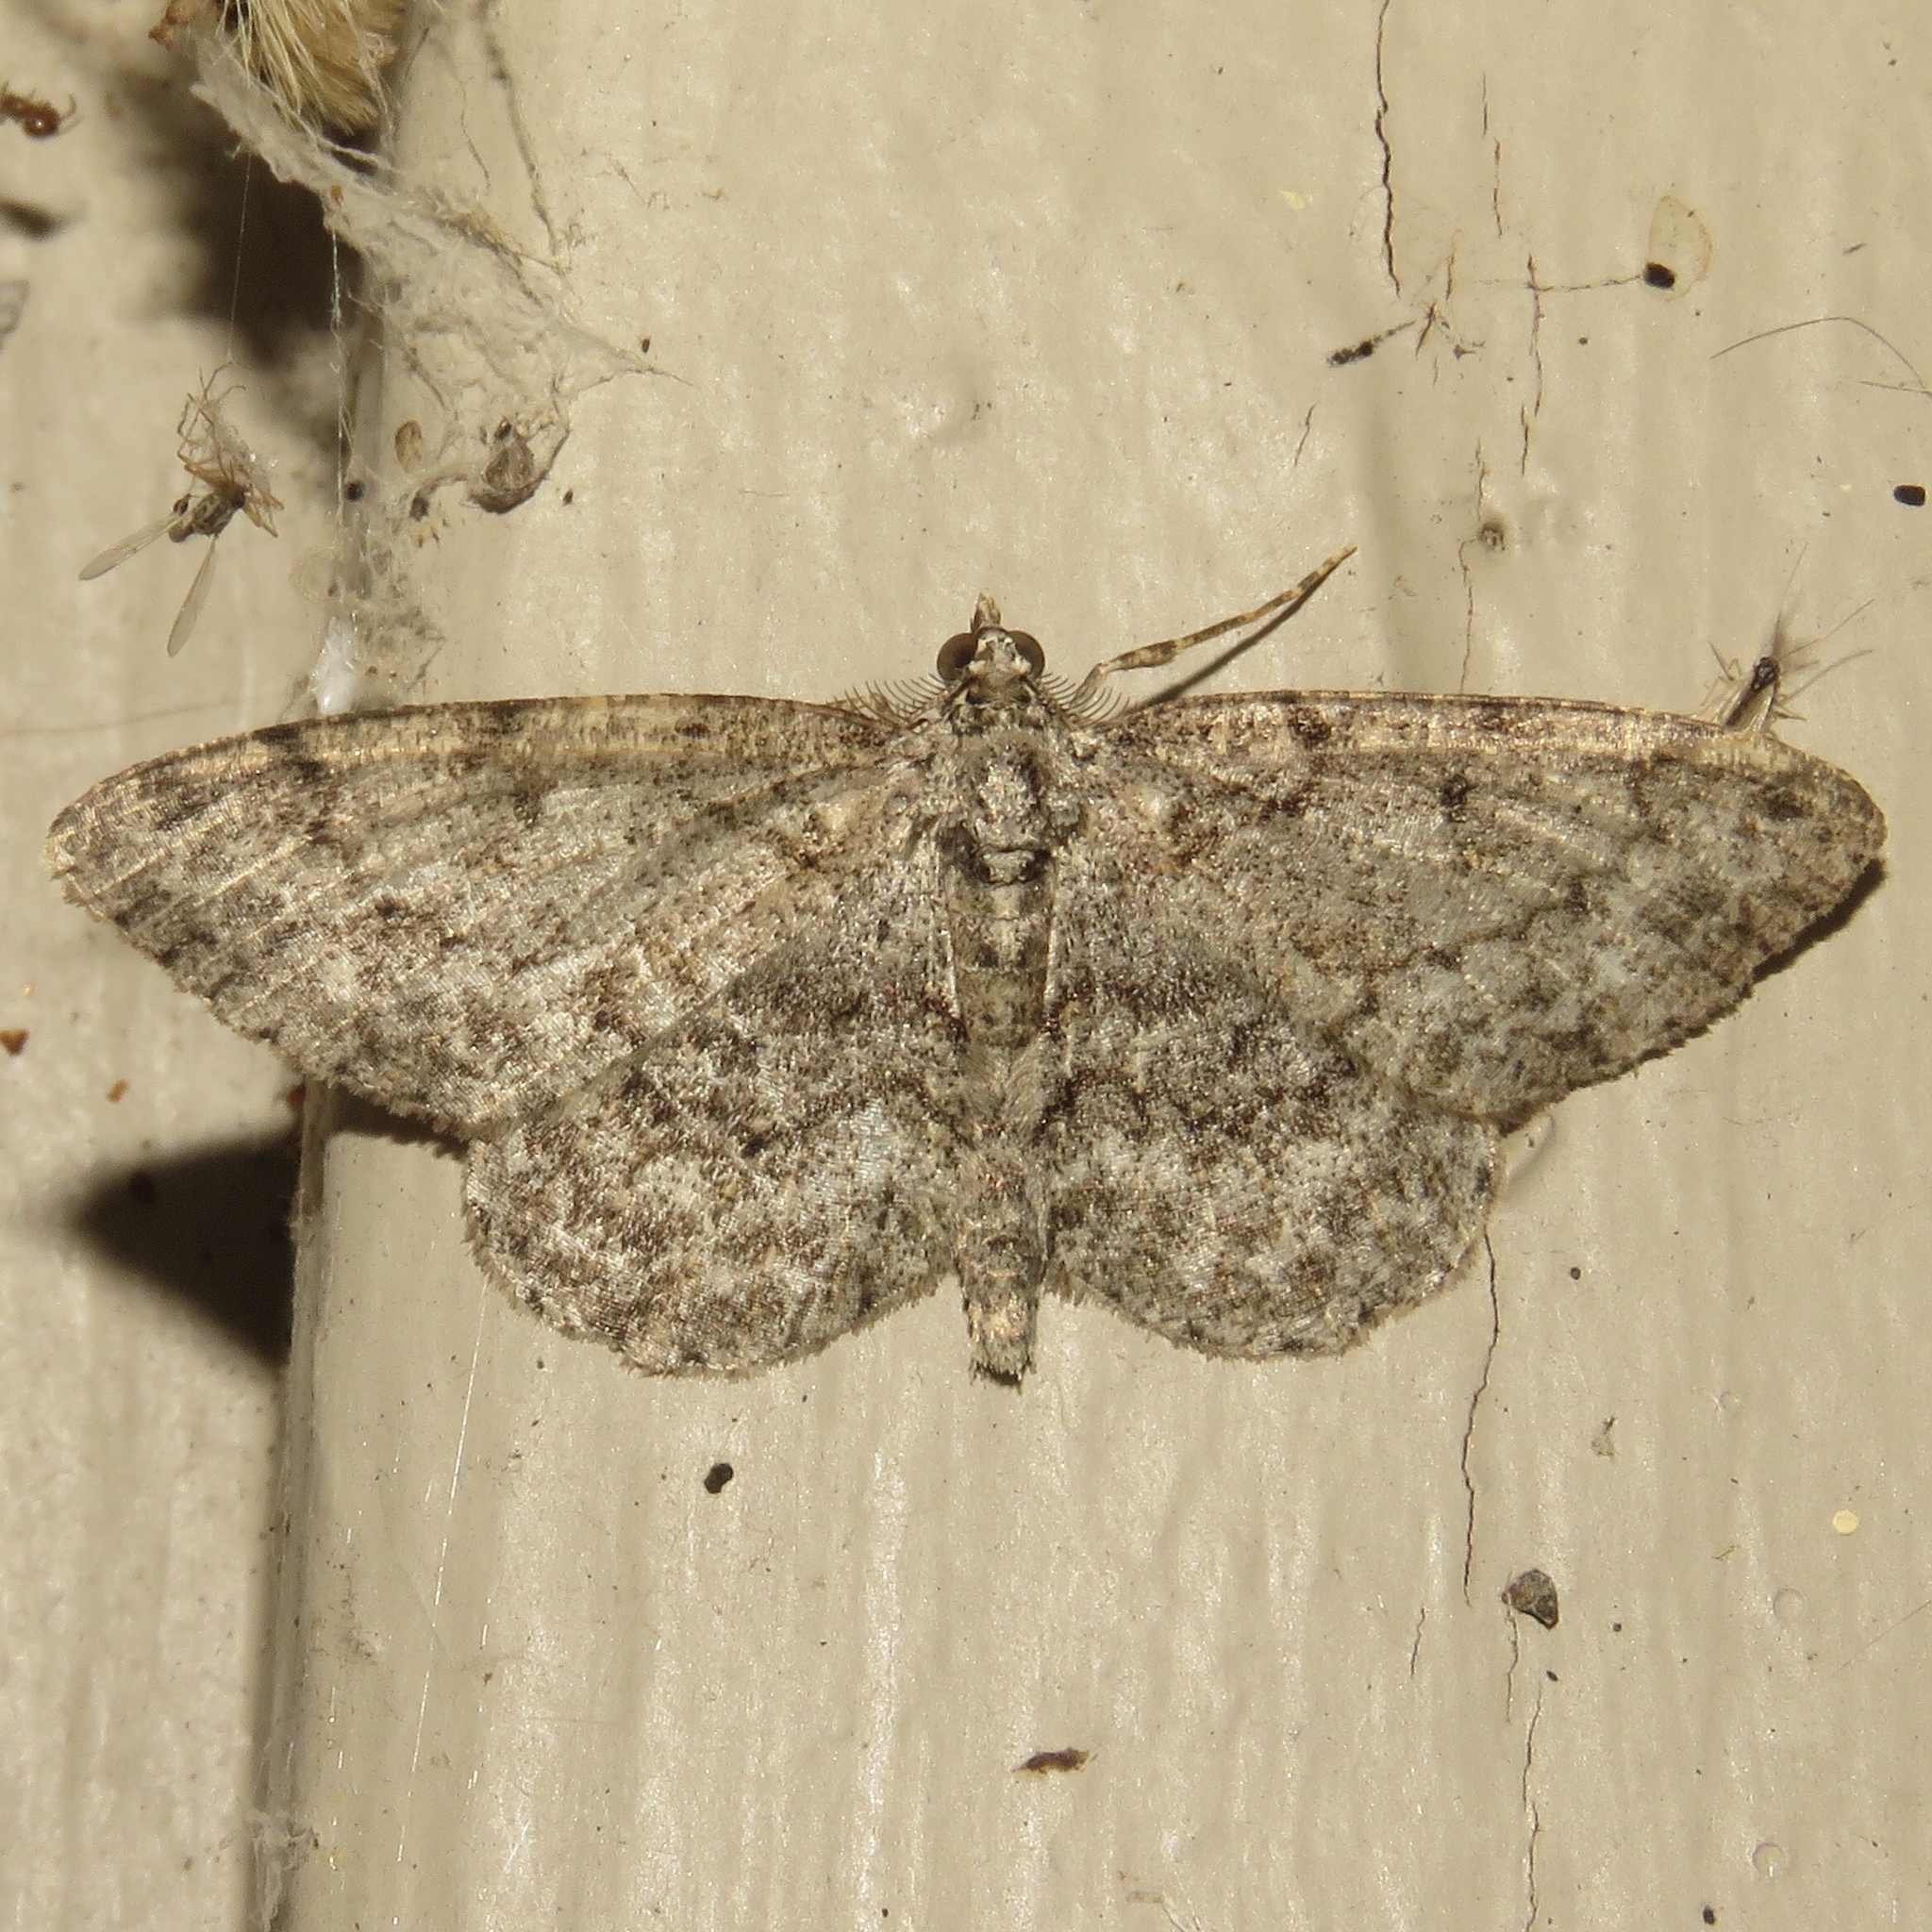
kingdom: Animalia
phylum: Arthropoda
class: Insecta
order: Lepidoptera
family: Geometridae
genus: Protoboarmia
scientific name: Protoboarmia porcelaria
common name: Porcelain gray
